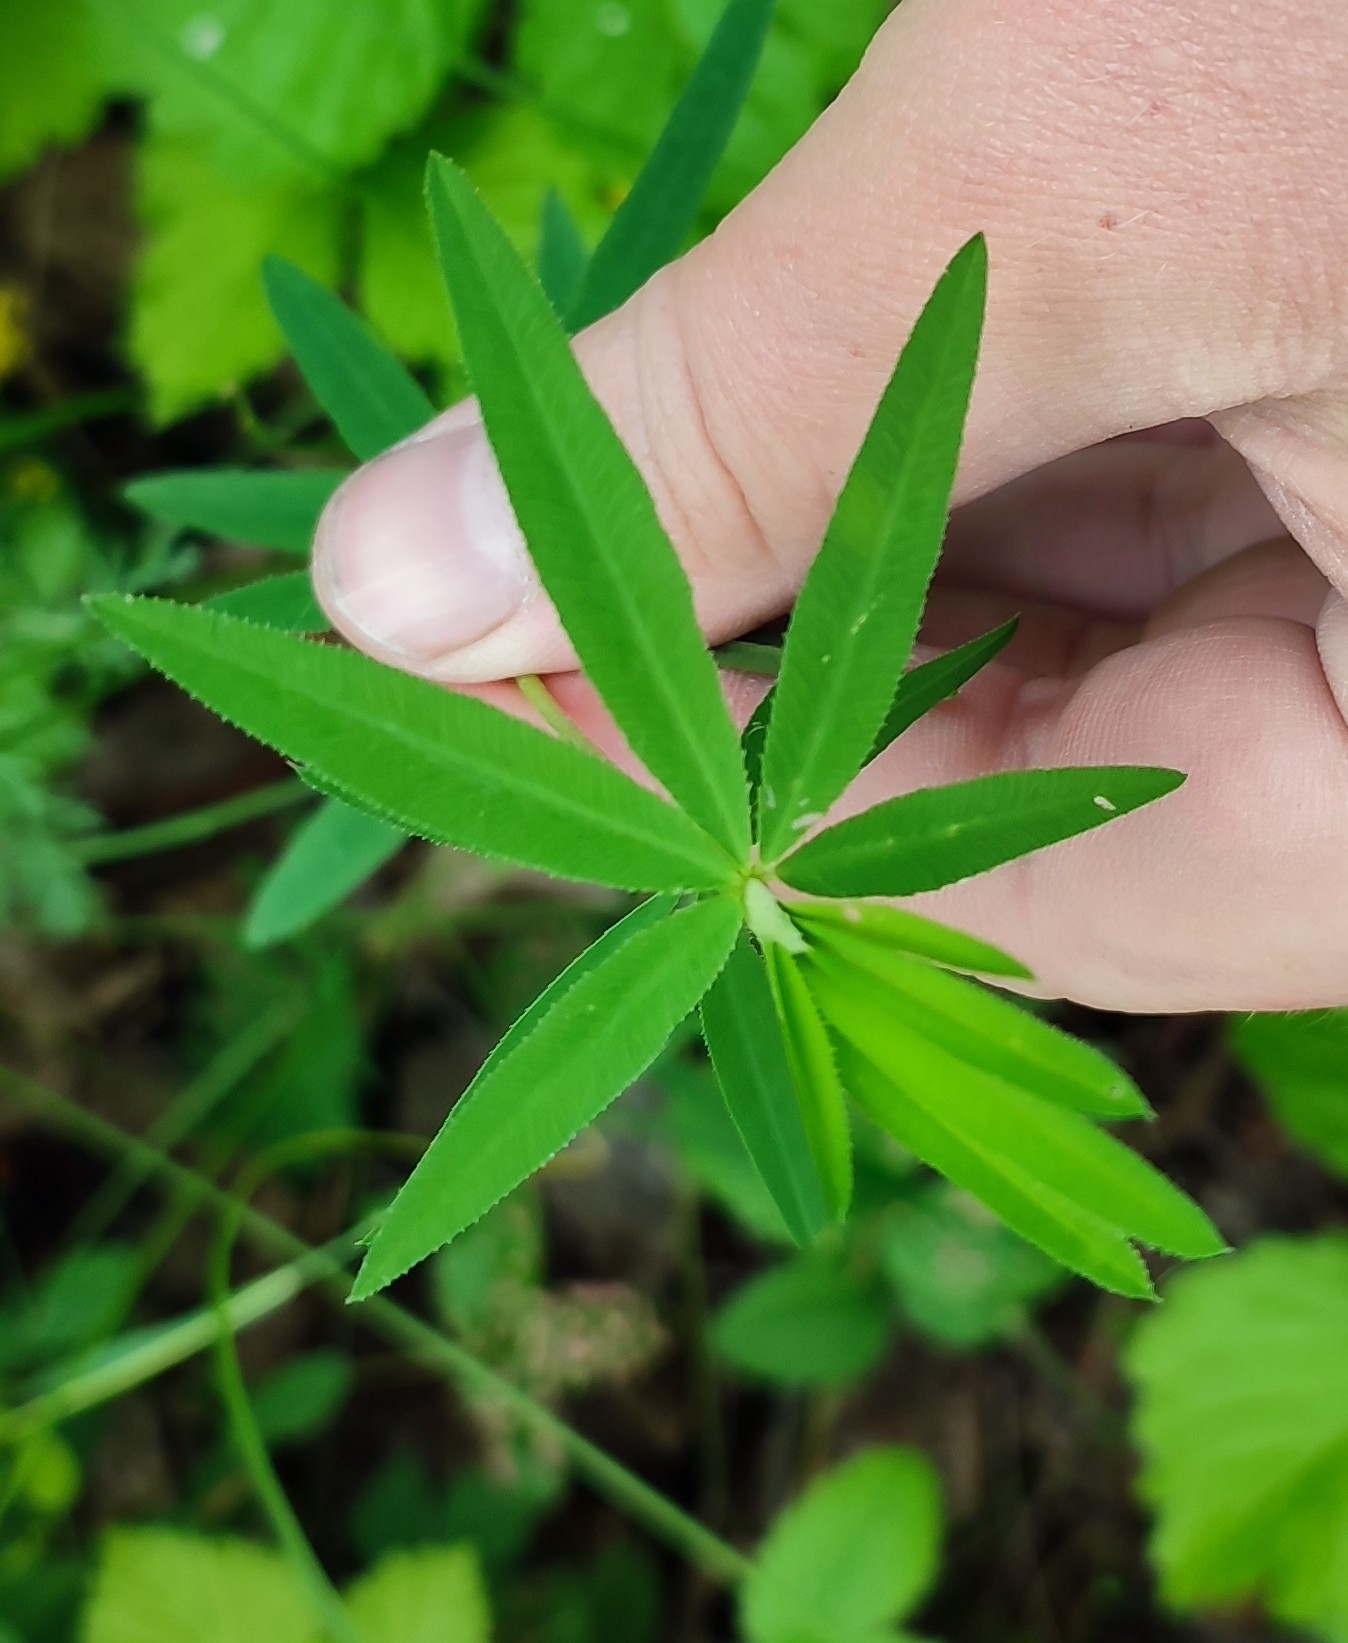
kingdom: Plantae
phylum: Tracheophyta
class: Magnoliopsida
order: Fabales
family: Fabaceae
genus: Trifolium
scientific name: Trifolium lupinaster
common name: Lupine clover
